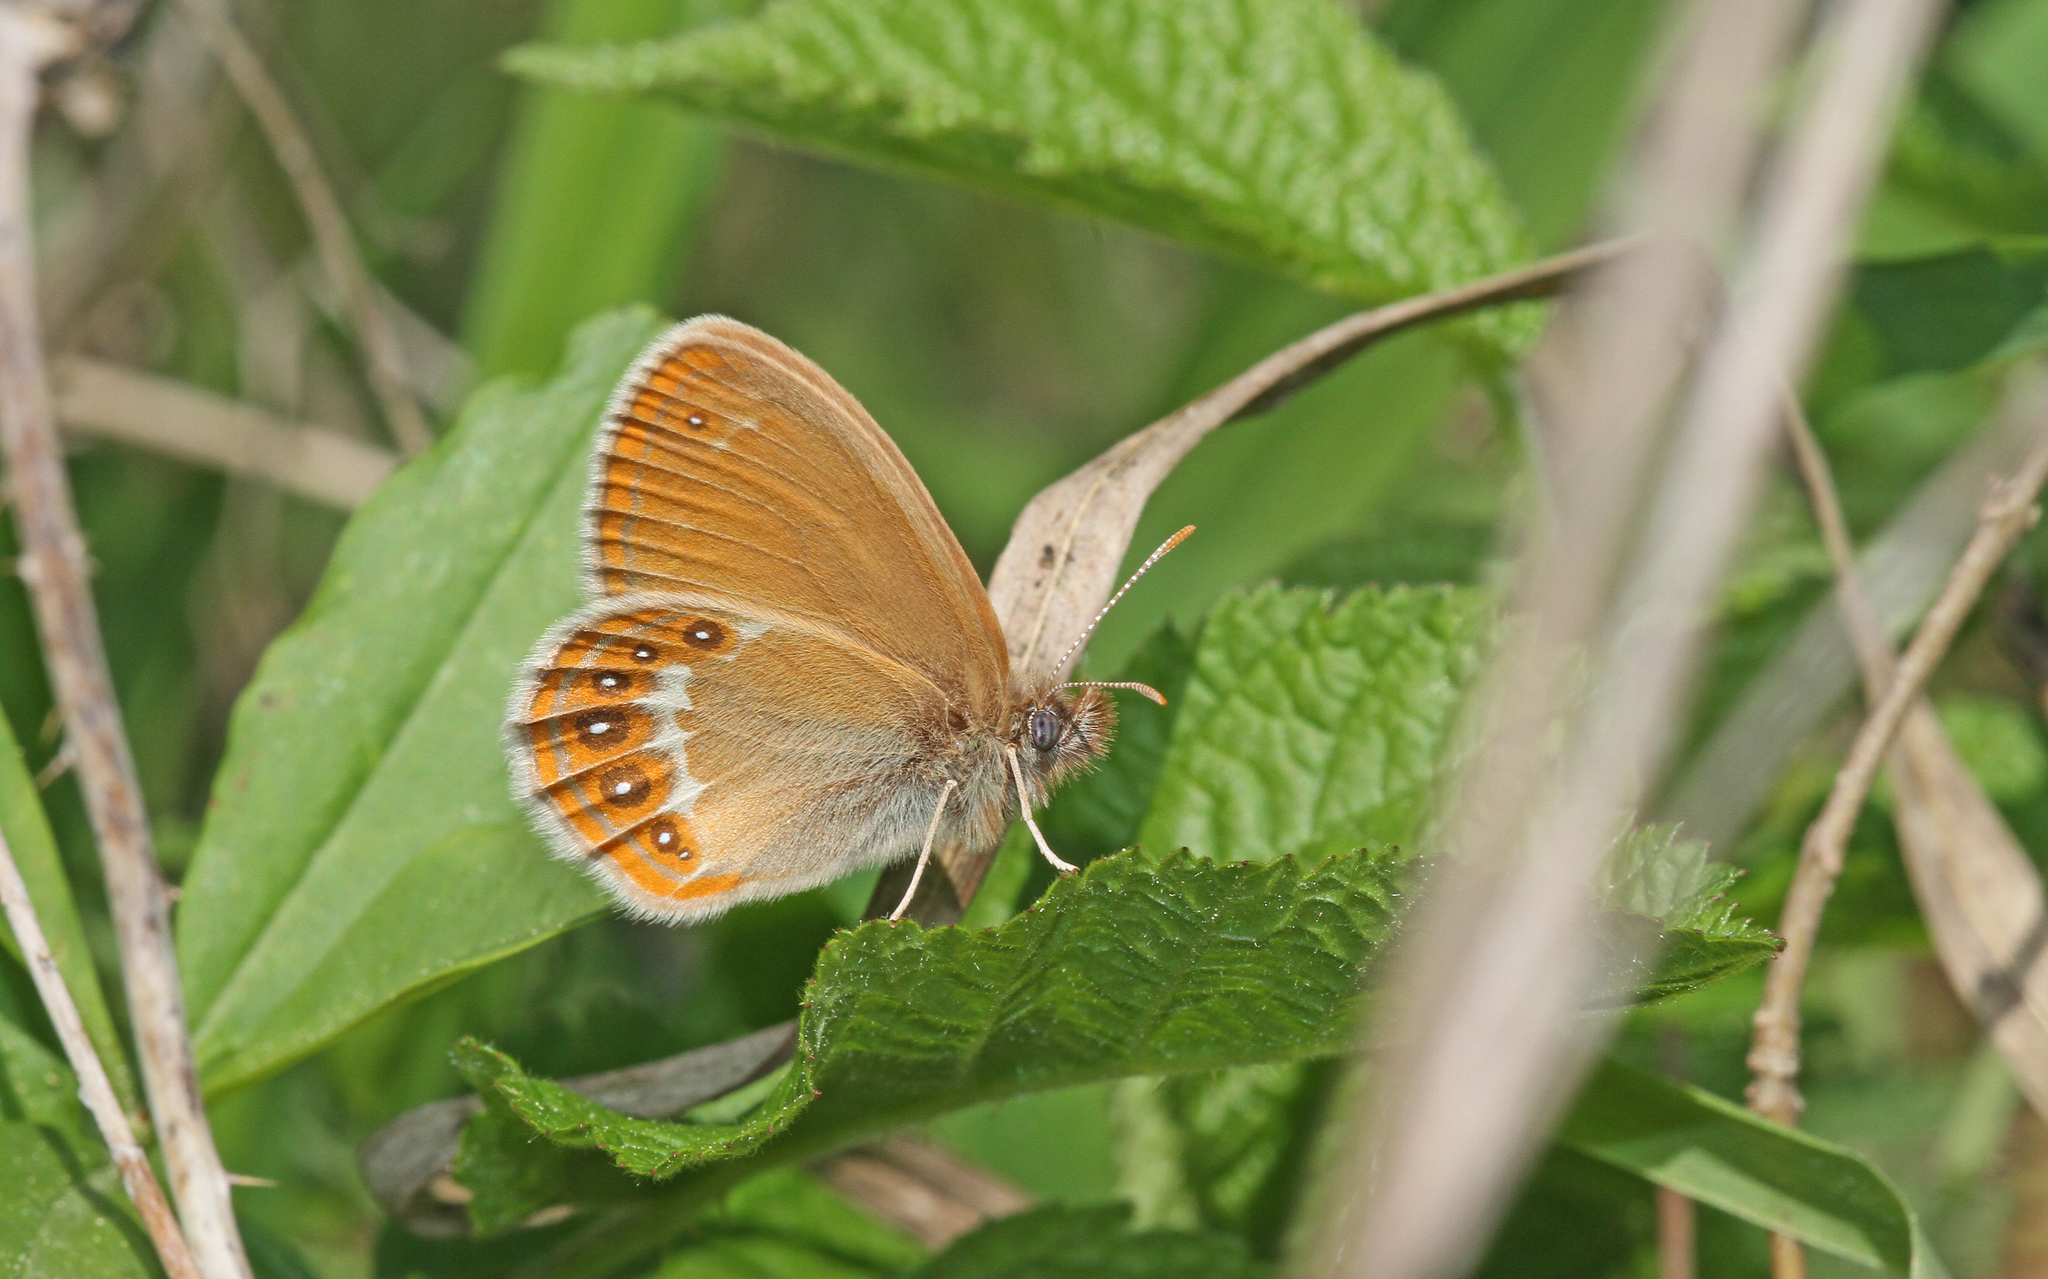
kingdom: Animalia
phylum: Arthropoda
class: Insecta
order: Lepidoptera
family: Nymphalidae
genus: Coenonympha
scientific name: Coenonympha hero
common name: Scarce heath
